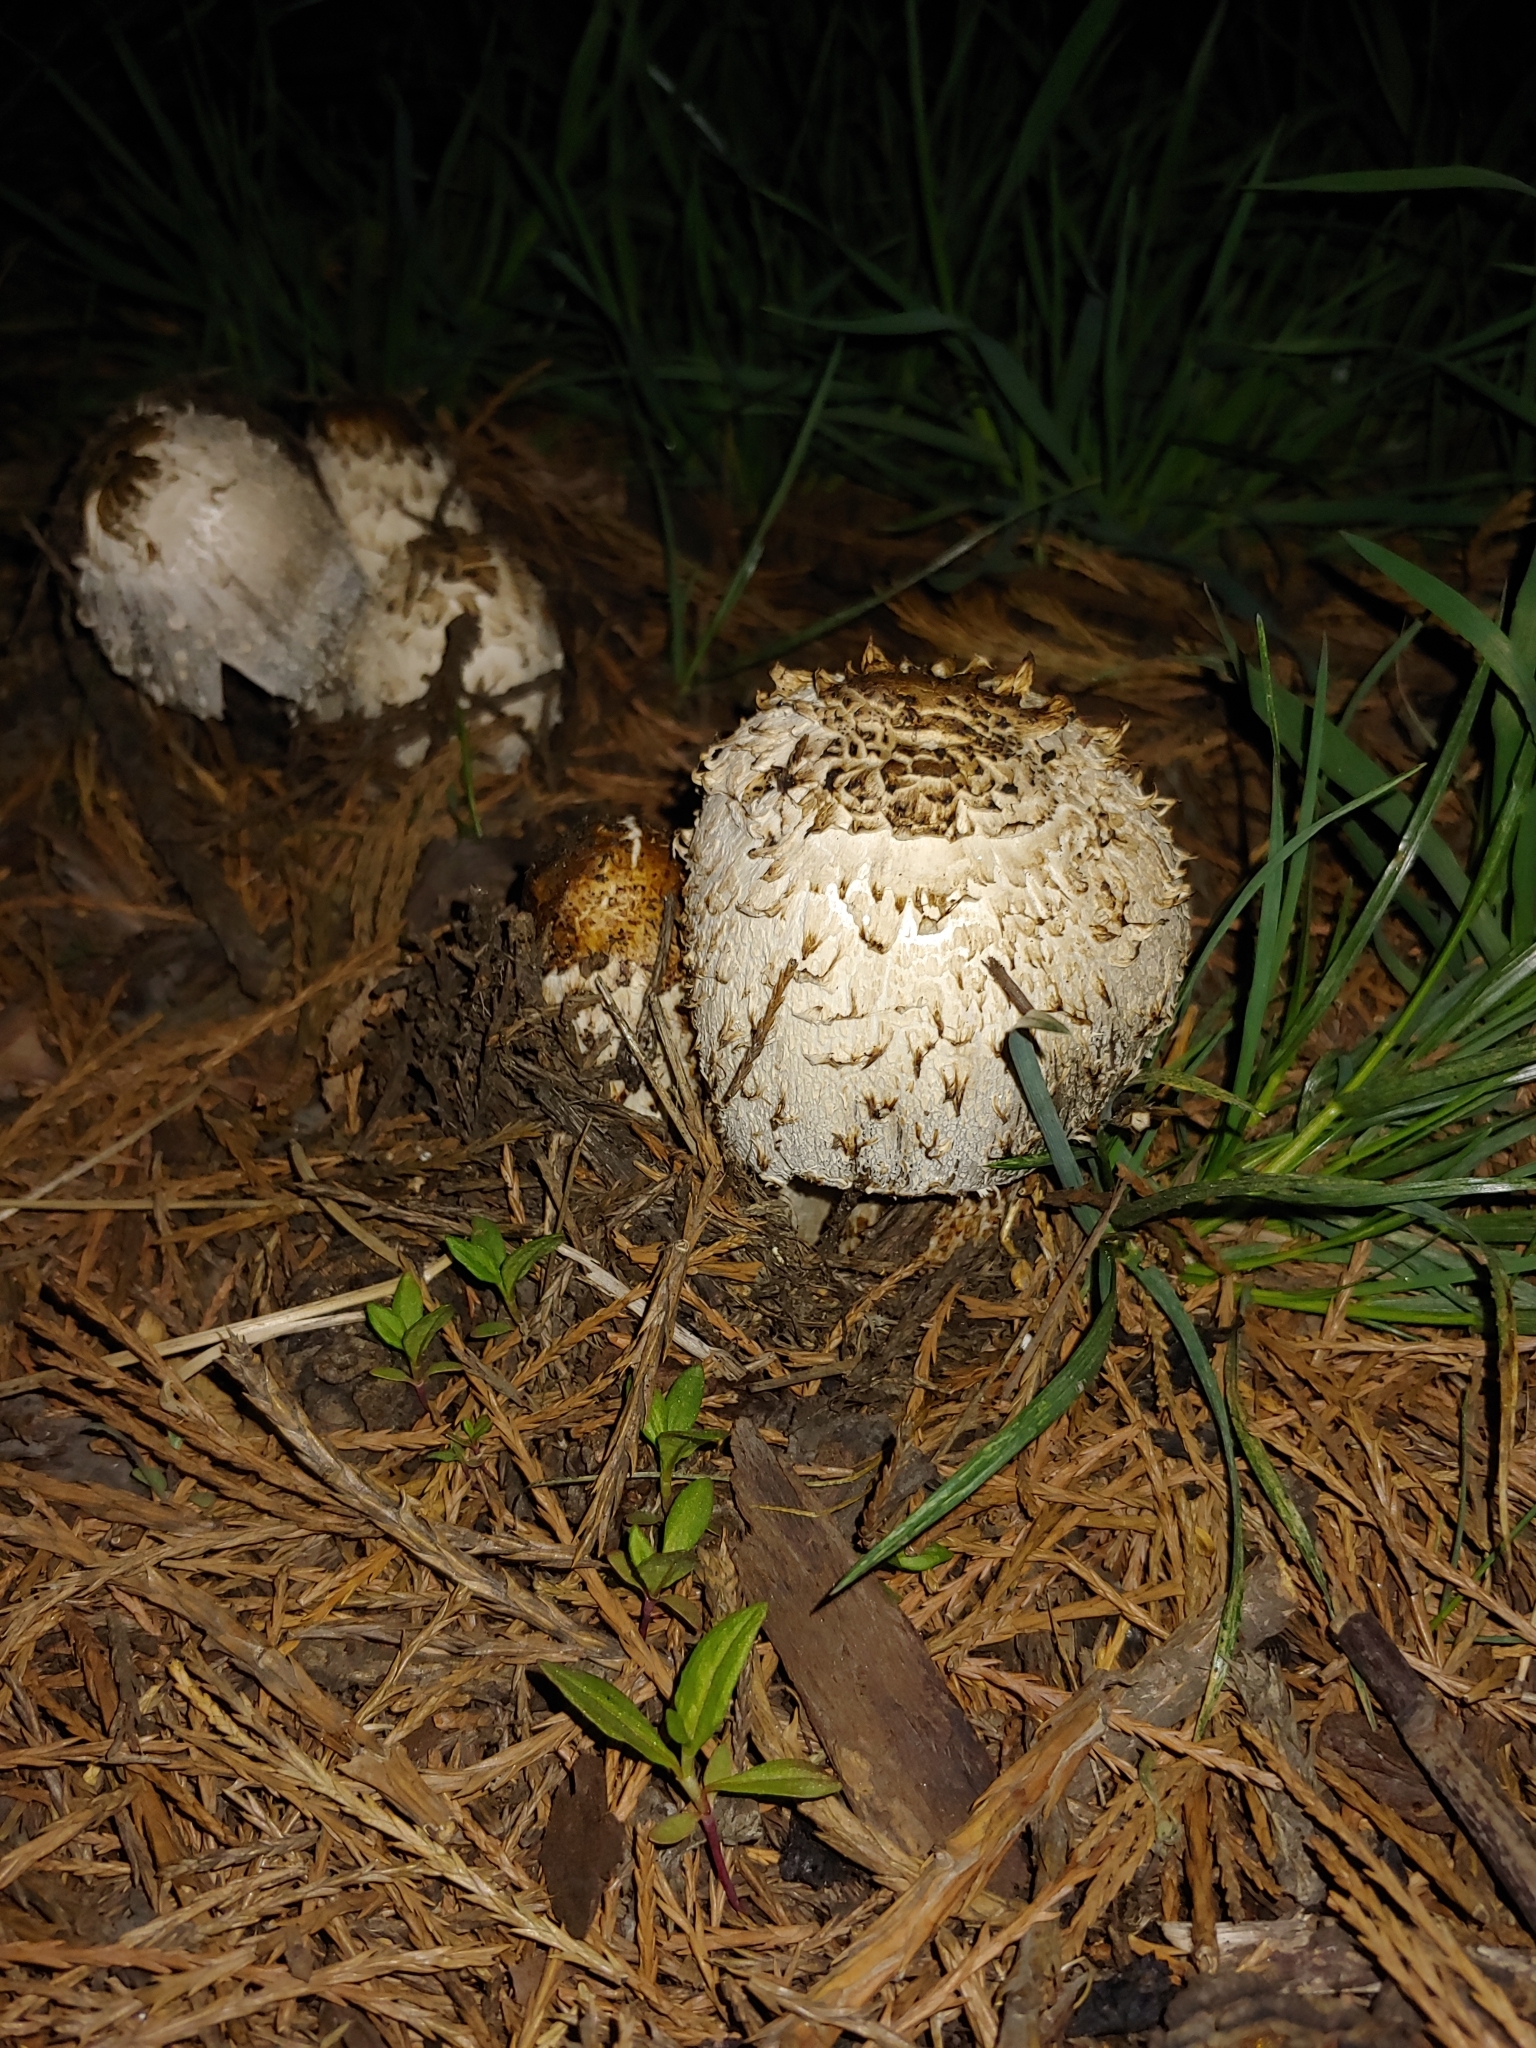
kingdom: Fungi
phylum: Basidiomycota
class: Agaricomycetes
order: Agaricales
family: Agaricaceae
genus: Coprinus
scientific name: Coprinus comatus
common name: Lawyer's wig
